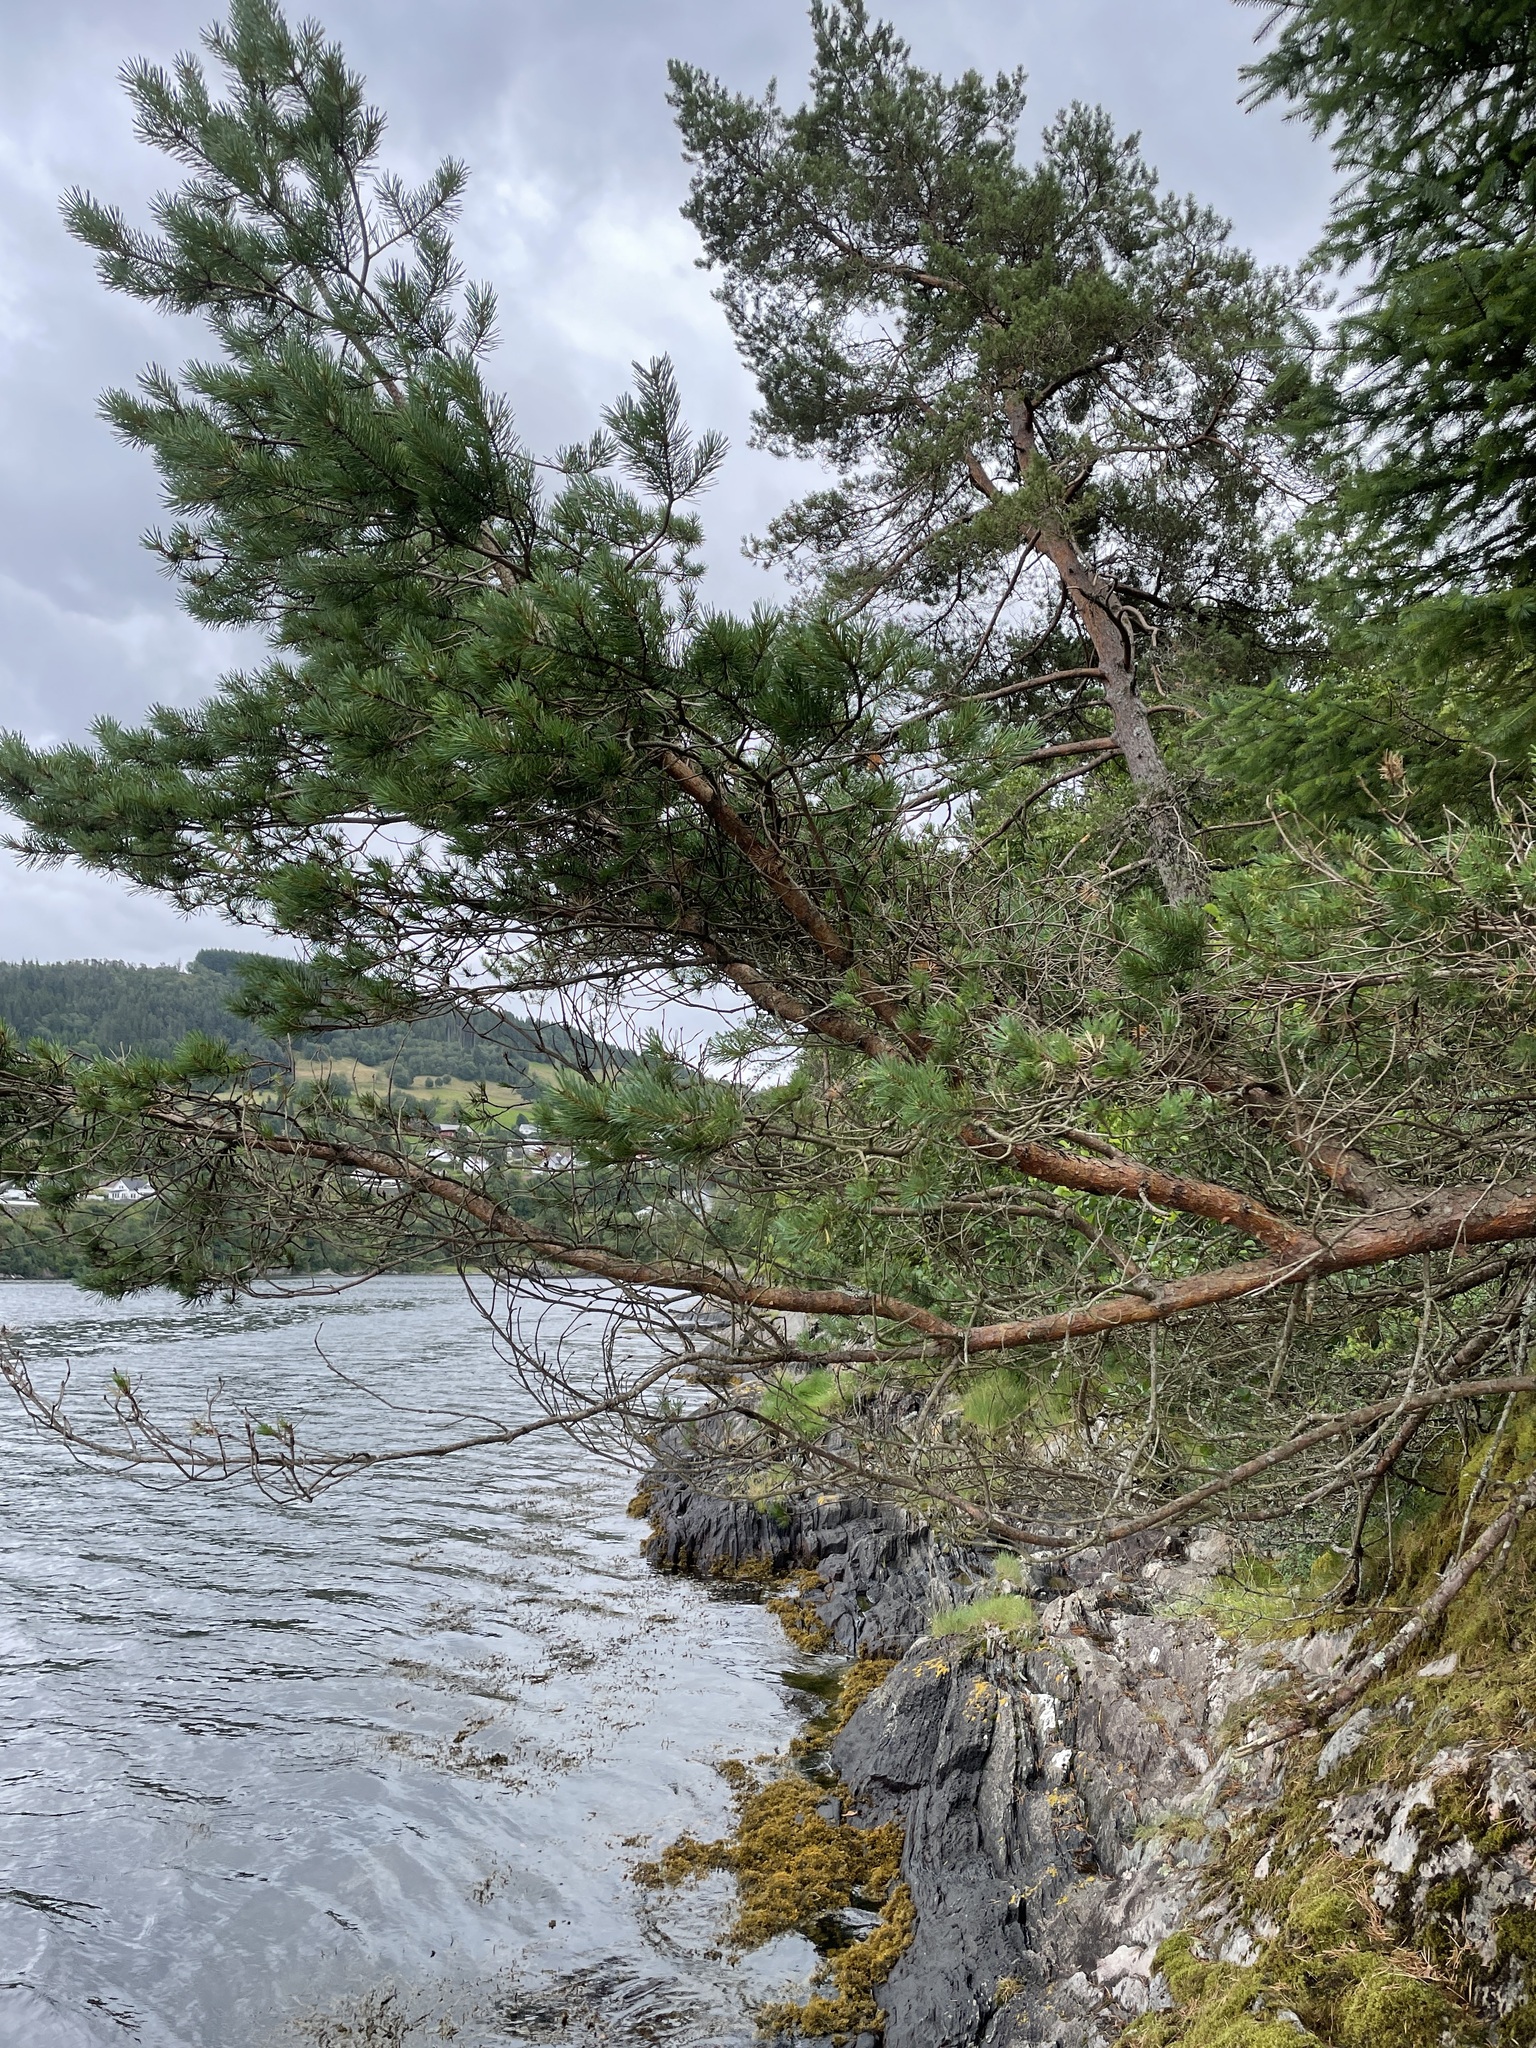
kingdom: Plantae
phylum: Tracheophyta
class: Pinopsida
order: Pinales
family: Pinaceae
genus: Pinus
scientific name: Pinus sylvestris
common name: Scots pine
